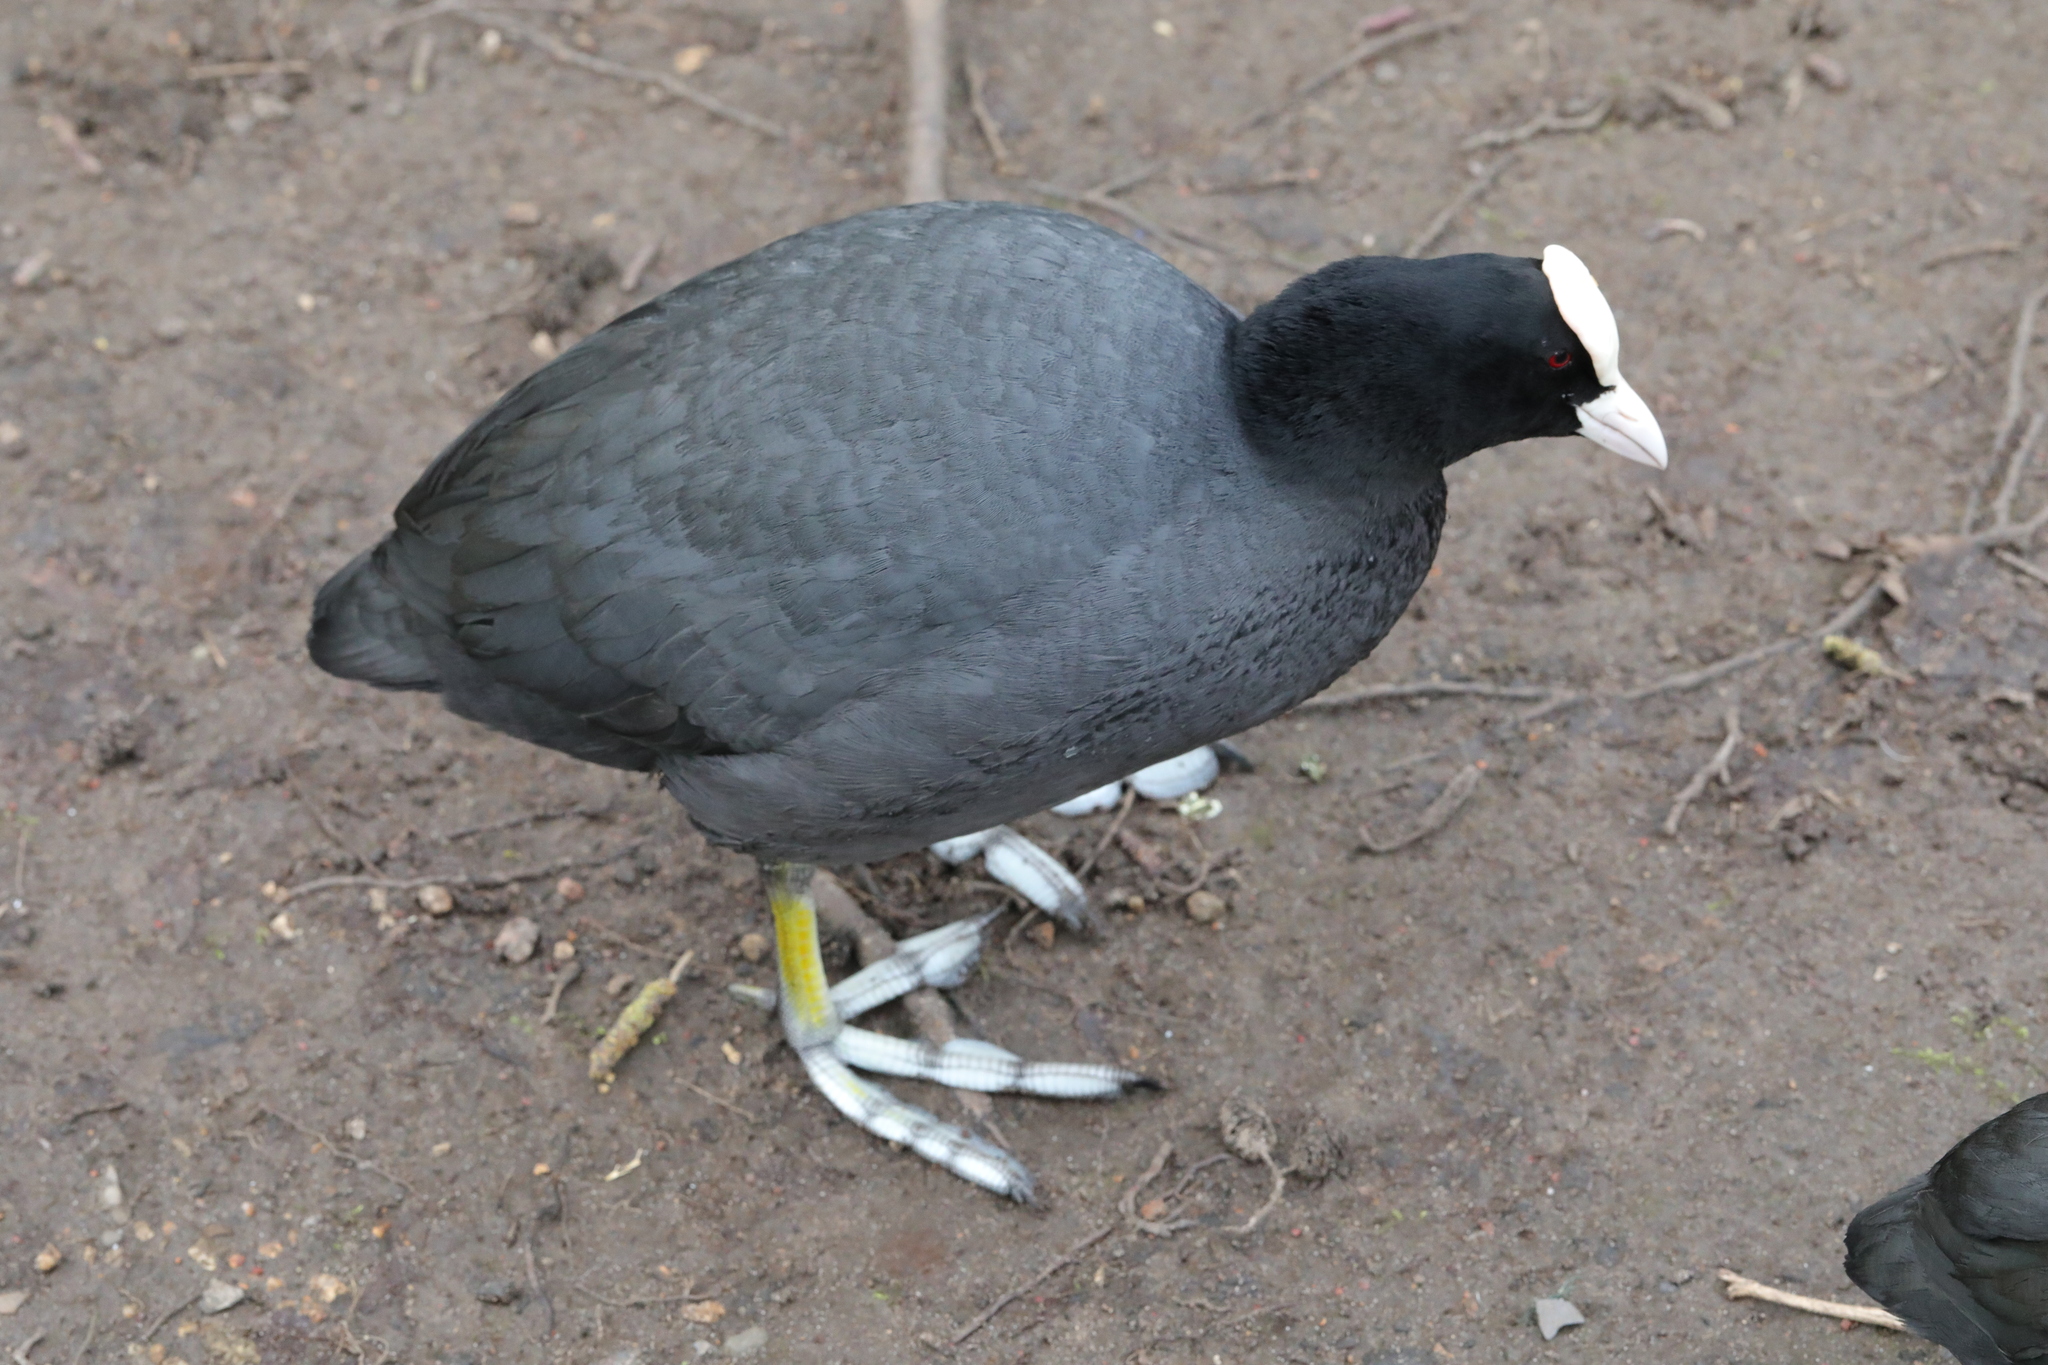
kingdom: Animalia
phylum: Chordata
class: Aves
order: Gruiformes
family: Rallidae
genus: Fulica
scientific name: Fulica atra
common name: Eurasian coot
